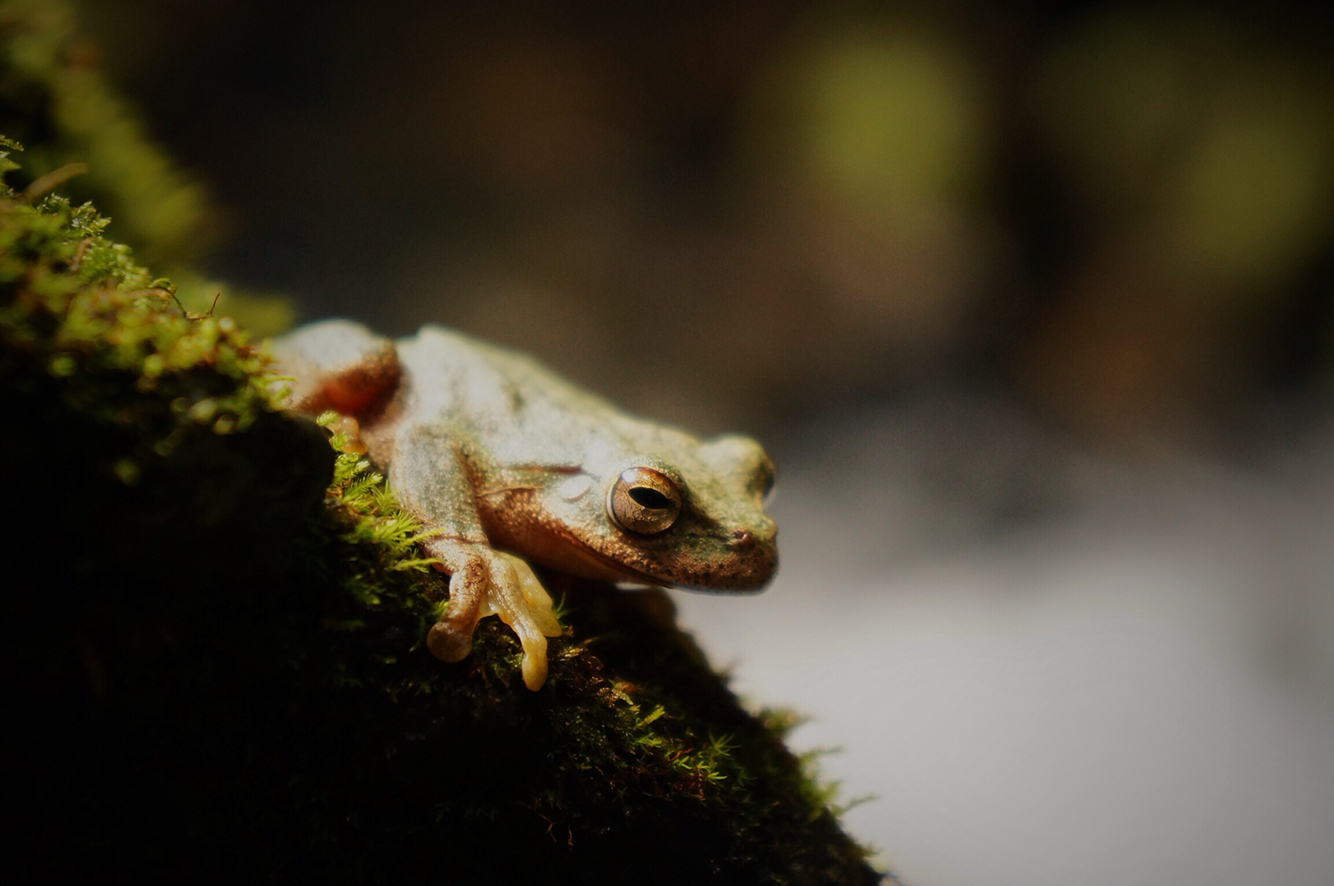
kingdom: Animalia
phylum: Chordata
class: Amphibia
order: Anura
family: Hylidae
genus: Rheohyla
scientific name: Rheohyla miotympanum
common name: Small-eard hyla
